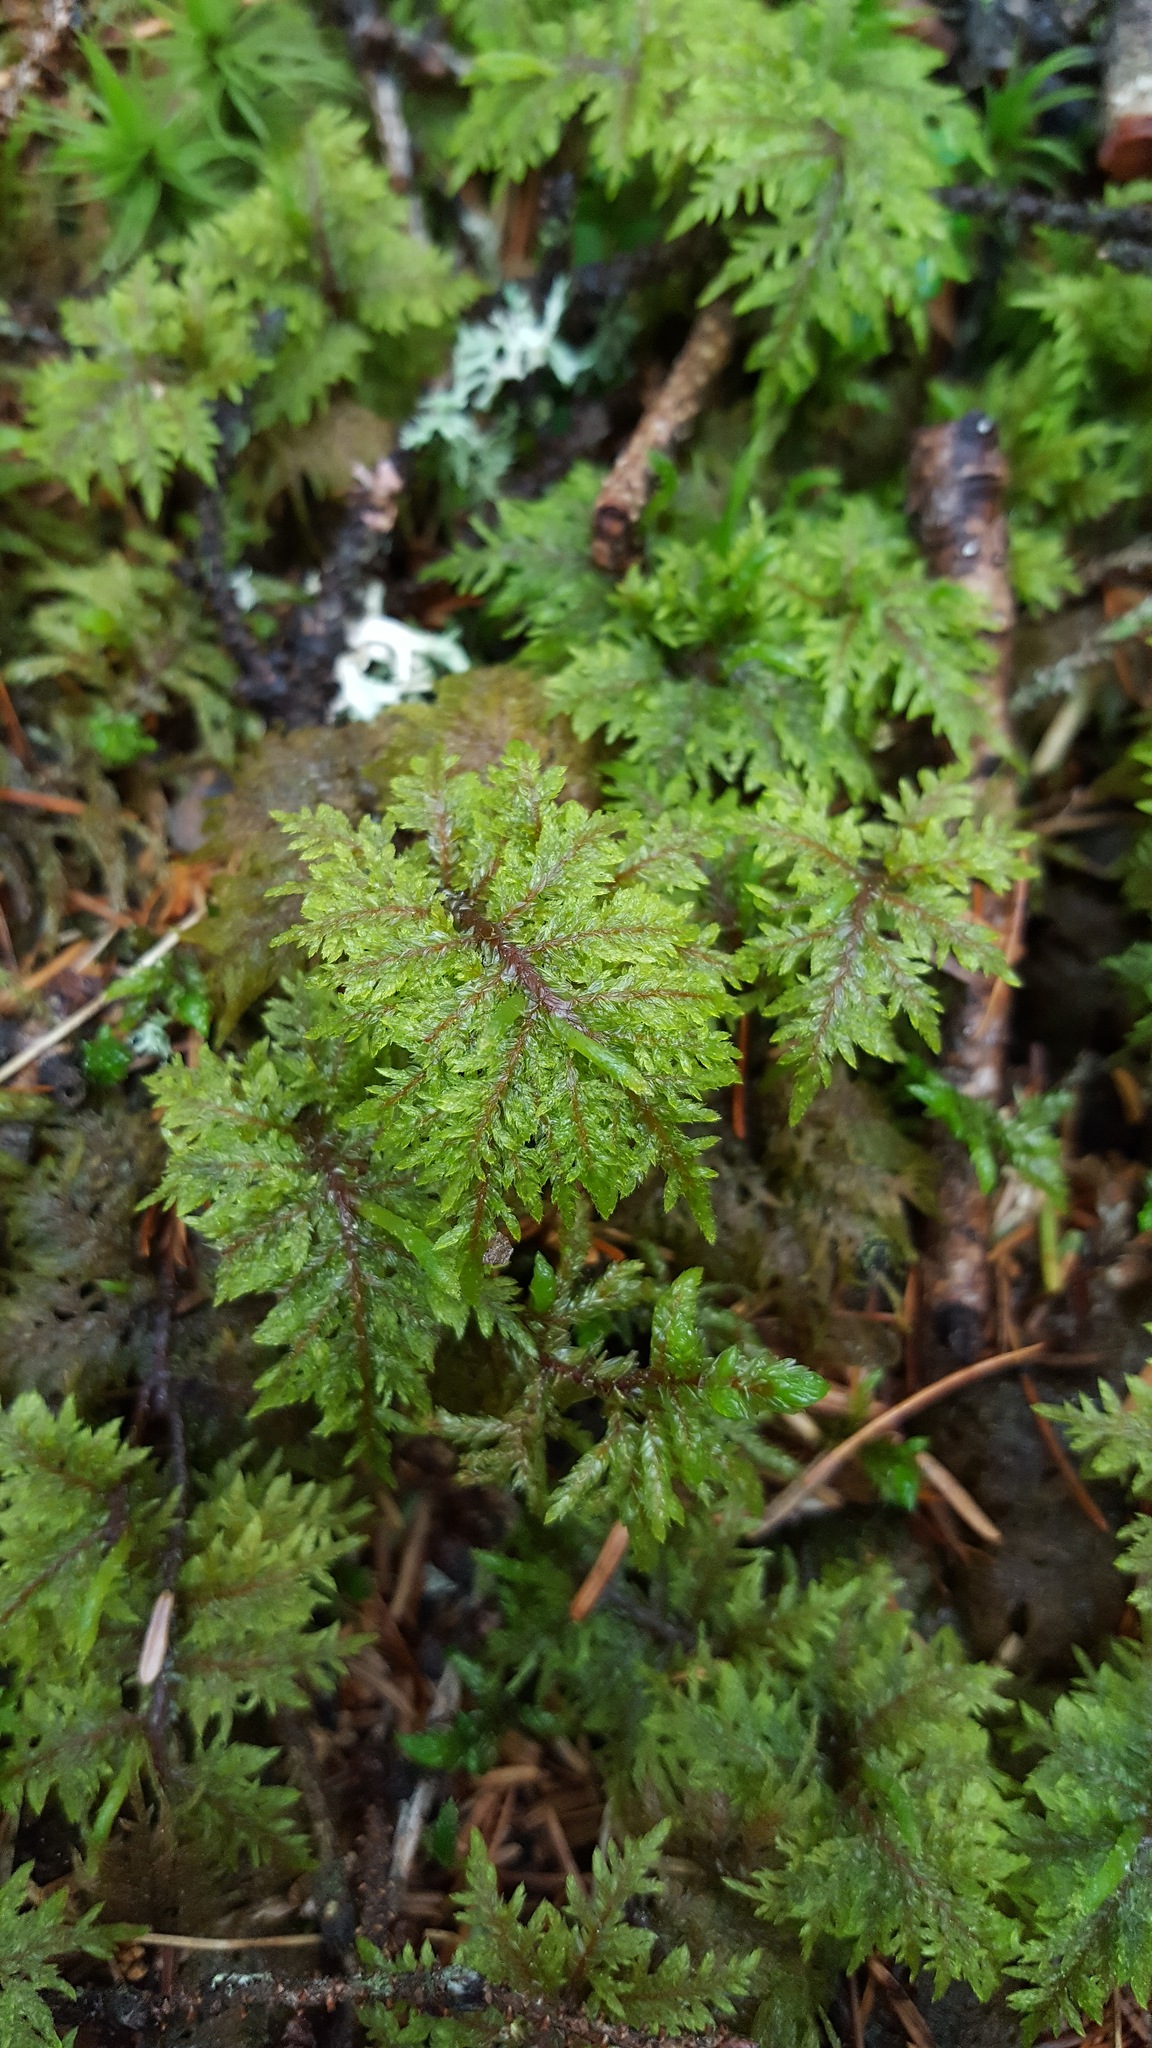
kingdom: Plantae
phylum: Bryophyta
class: Bryopsida
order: Hypnales
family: Hylocomiaceae
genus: Hylocomium
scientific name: Hylocomium splendens
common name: Stairstep moss
